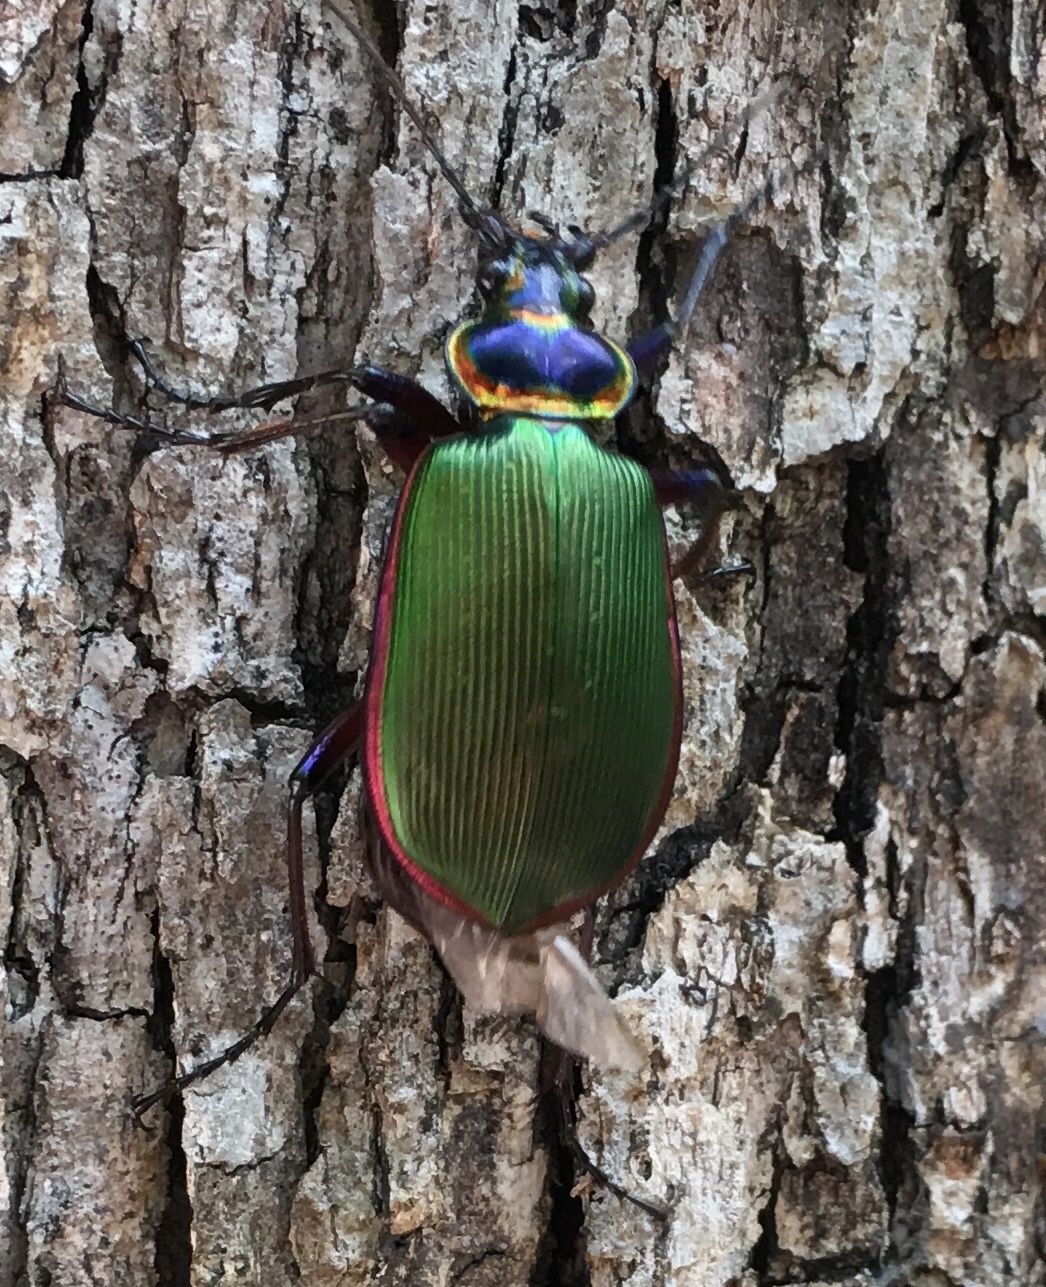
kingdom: Animalia
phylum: Arthropoda
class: Insecta
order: Coleoptera
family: Carabidae
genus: Calosoma
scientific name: Calosoma scrutator
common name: Fiery searcher beetle
